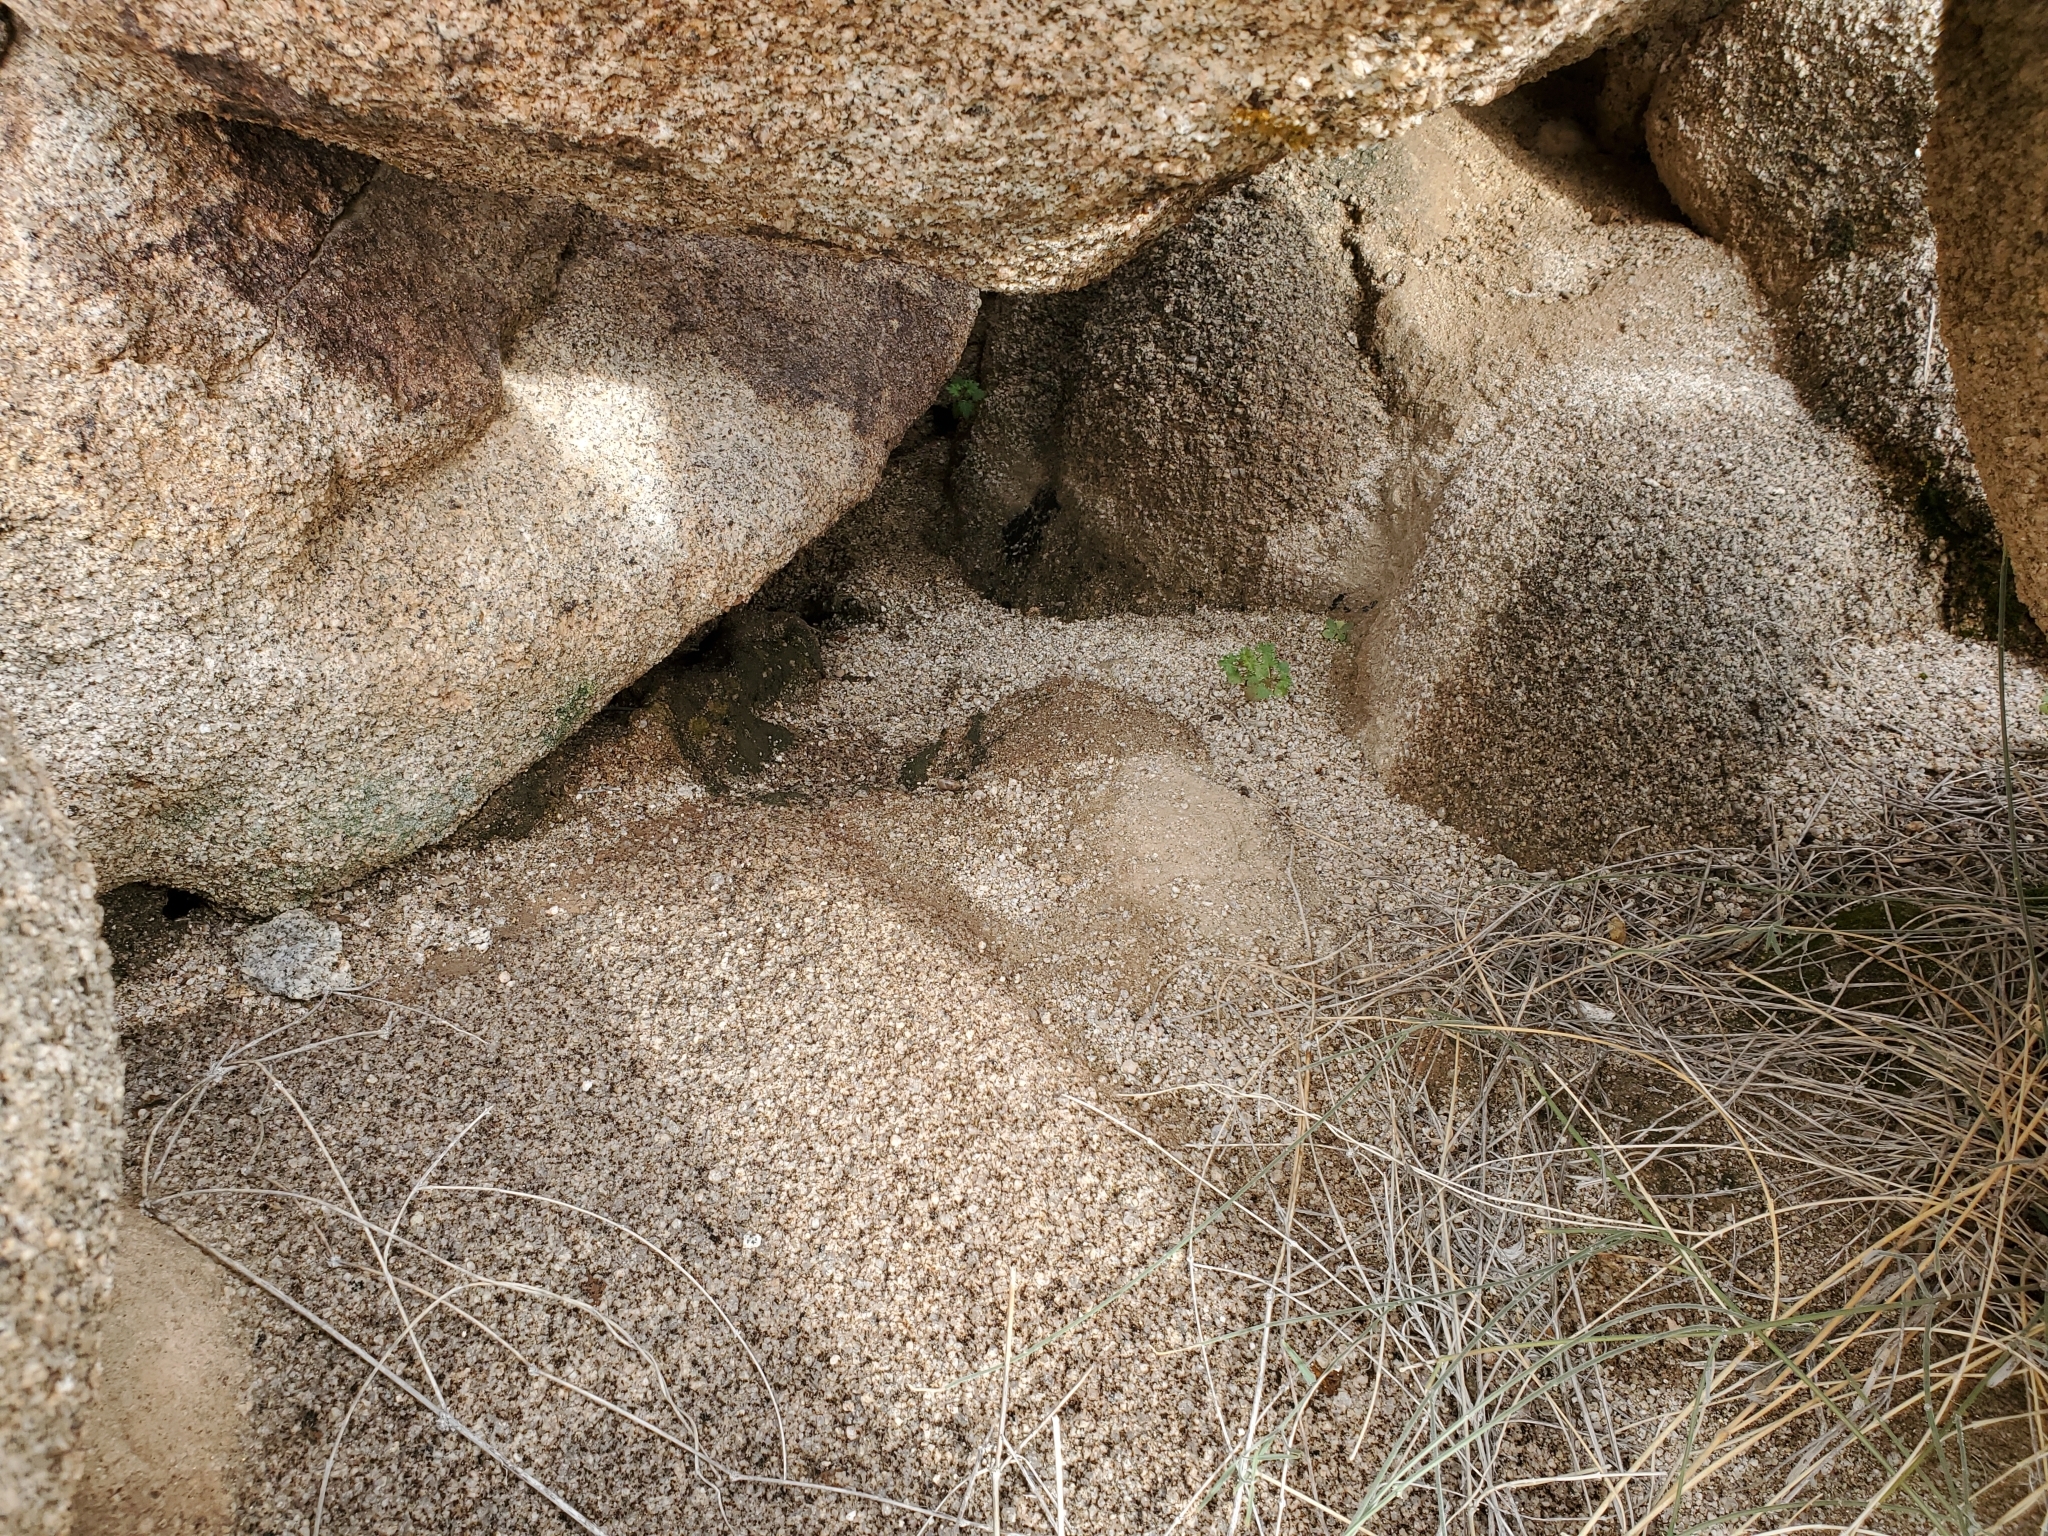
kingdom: Animalia
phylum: Mollusca
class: Gastropoda
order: Stylommatophora
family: Xanthonychidae
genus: Sonorelix
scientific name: Sonorelix borregoensis
